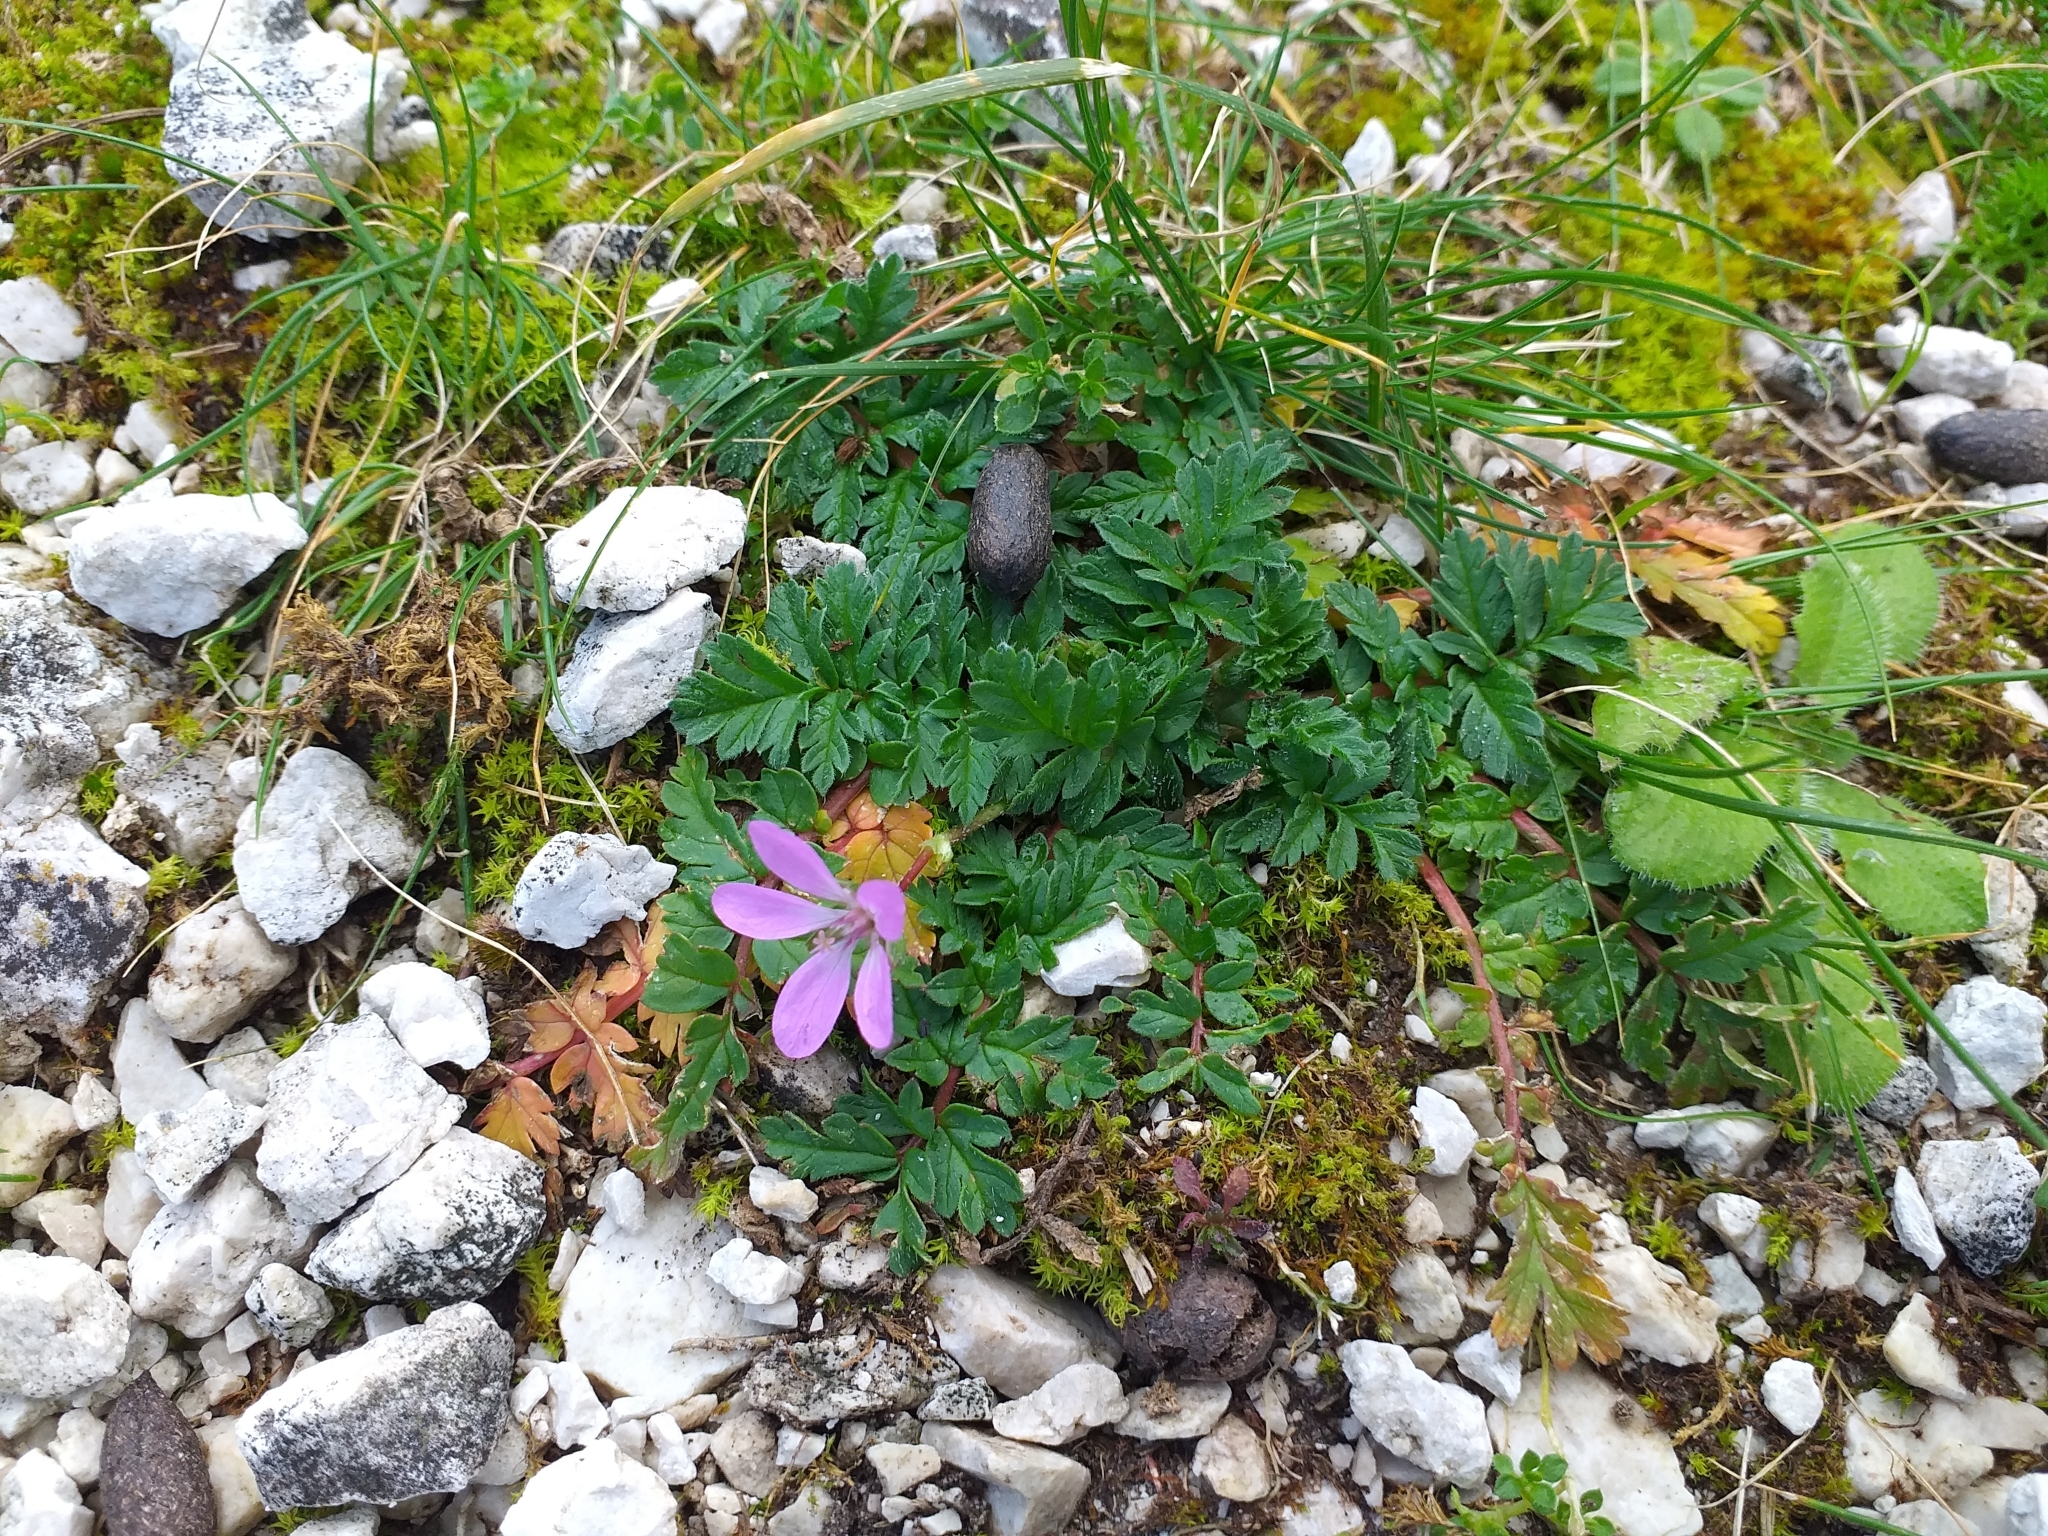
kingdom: Plantae
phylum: Tracheophyta
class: Magnoliopsida
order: Geraniales
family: Geraniaceae
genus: Erodium
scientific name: Erodium cicutarium
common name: Common stork's-bill
